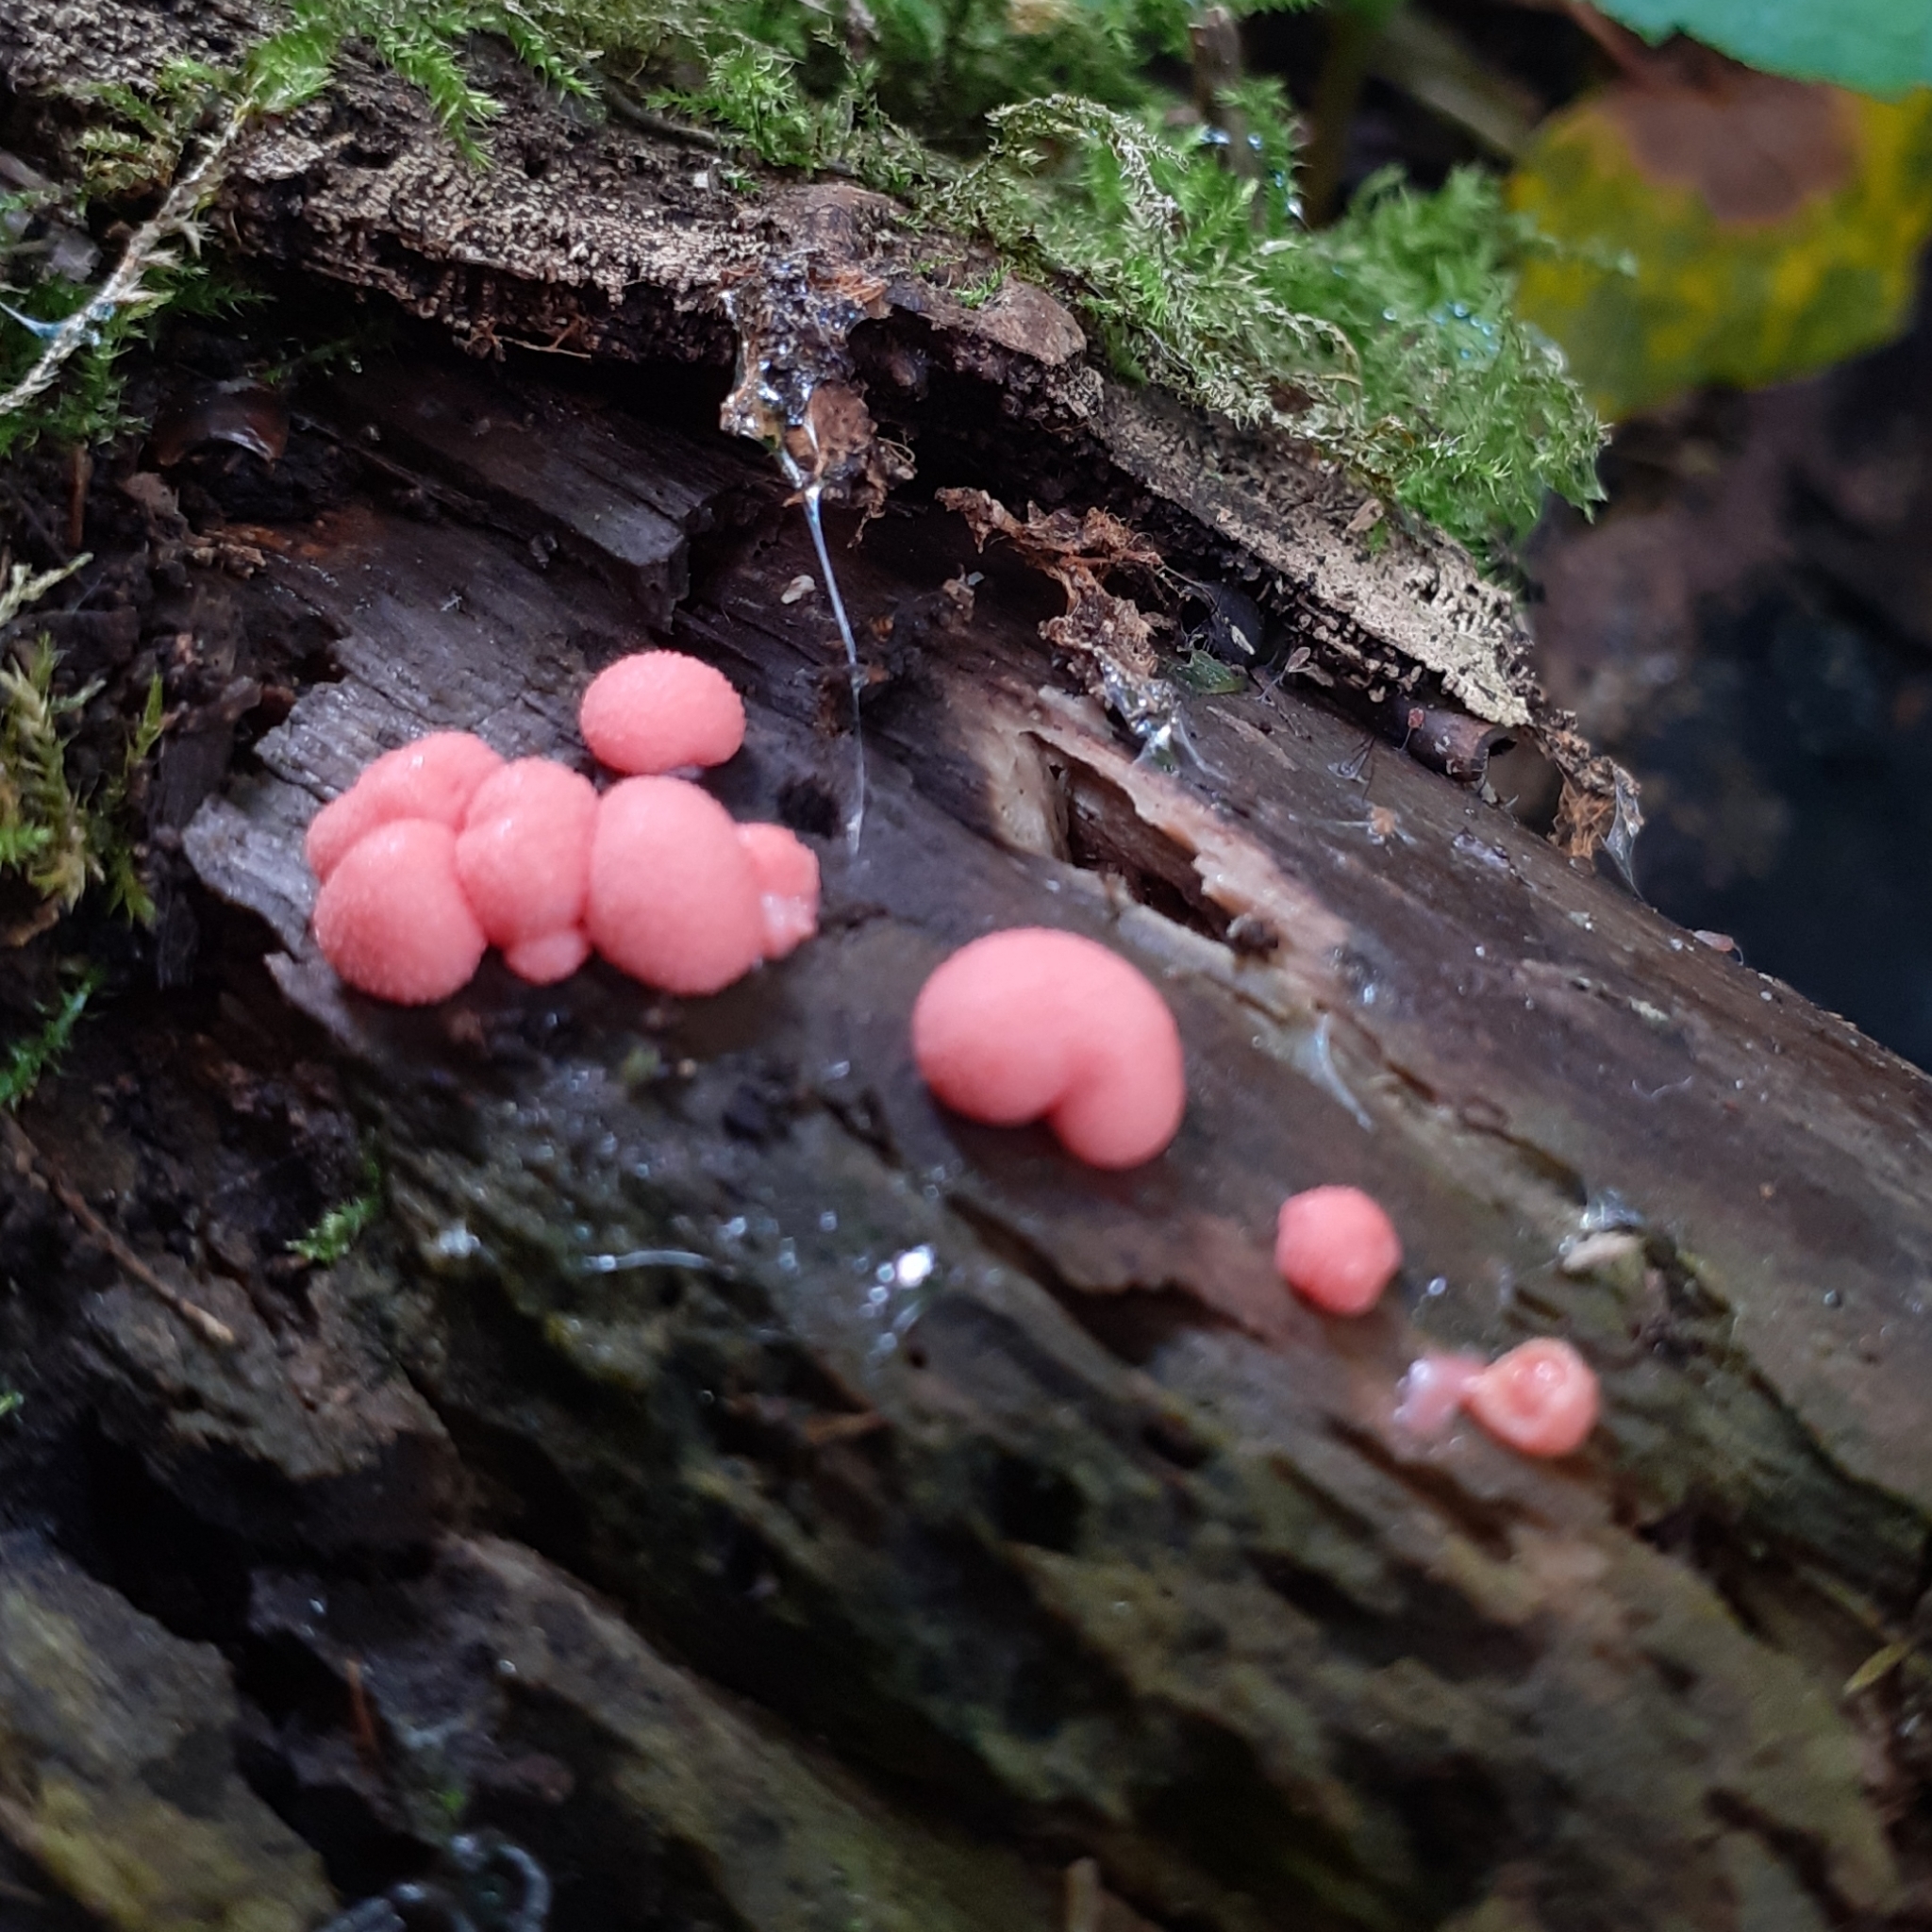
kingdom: Protozoa
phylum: Mycetozoa
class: Myxomycetes
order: Cribrariales
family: Tubiferaceae
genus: Lycogala
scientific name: Lycogala epidendrum
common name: Wolf's milk
